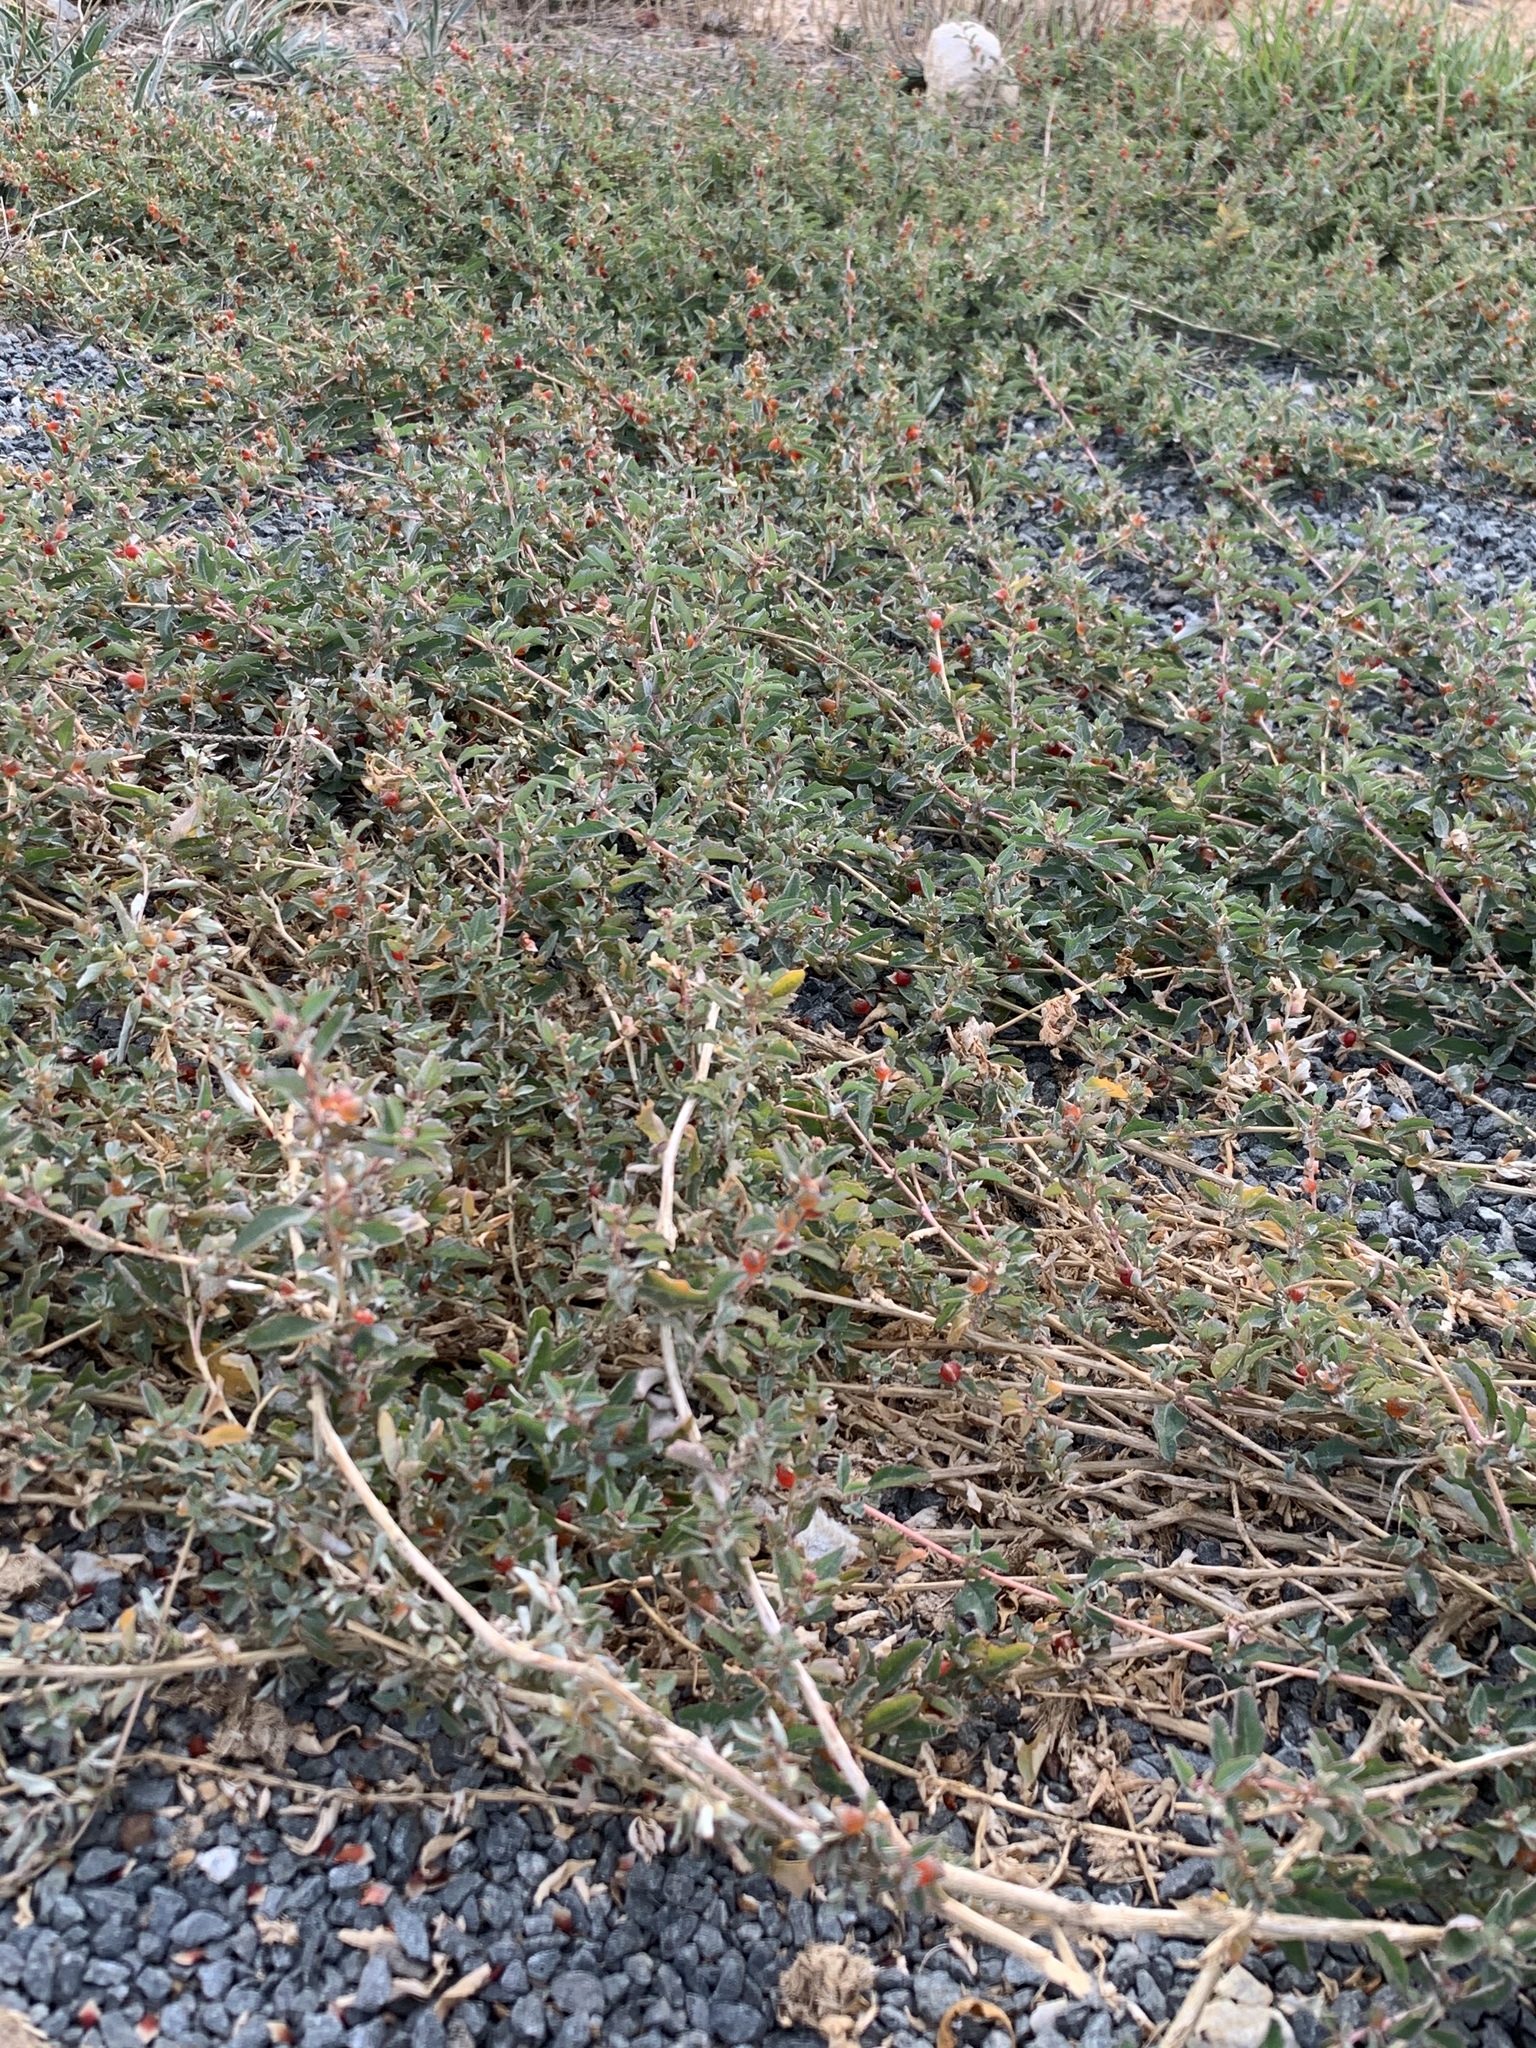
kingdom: Plantae
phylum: Tracheophyta
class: Magnoliopsida
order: Caryophyllales
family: Amaranthaceae
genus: Atriplex
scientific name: Atriplex semibaccata
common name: Australian saltbush
